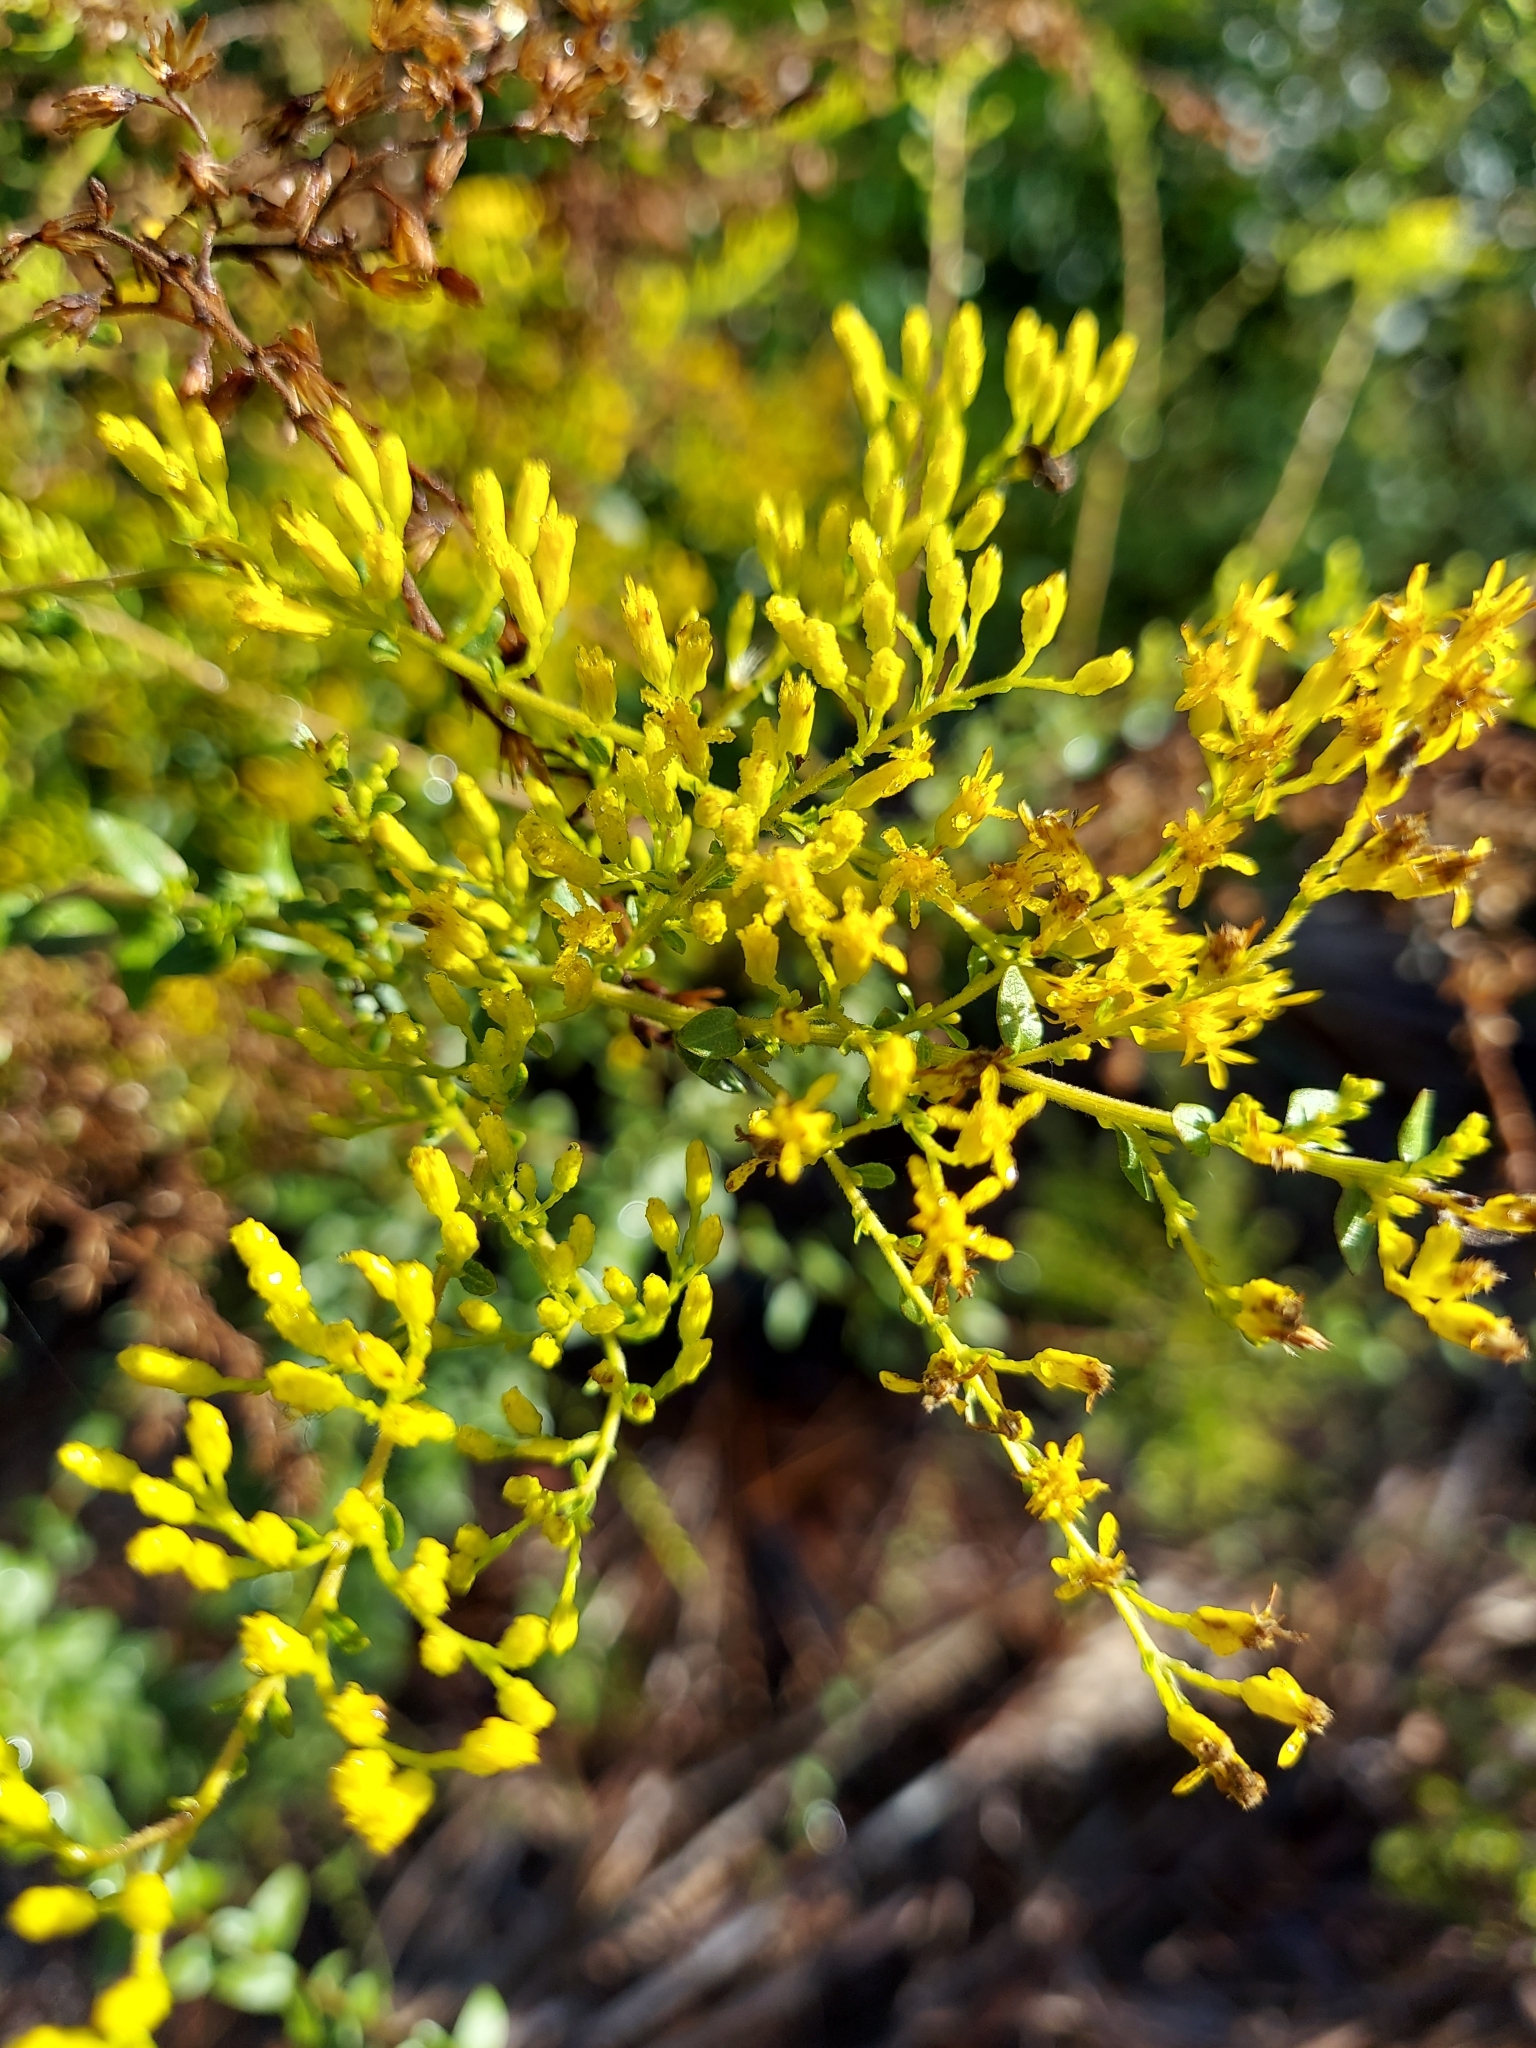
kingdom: Plantae
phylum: Tracheophyta
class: Magnoliopsida
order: Asterales
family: Asteraceae
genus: Solidago
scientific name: Solidago chapmanii
